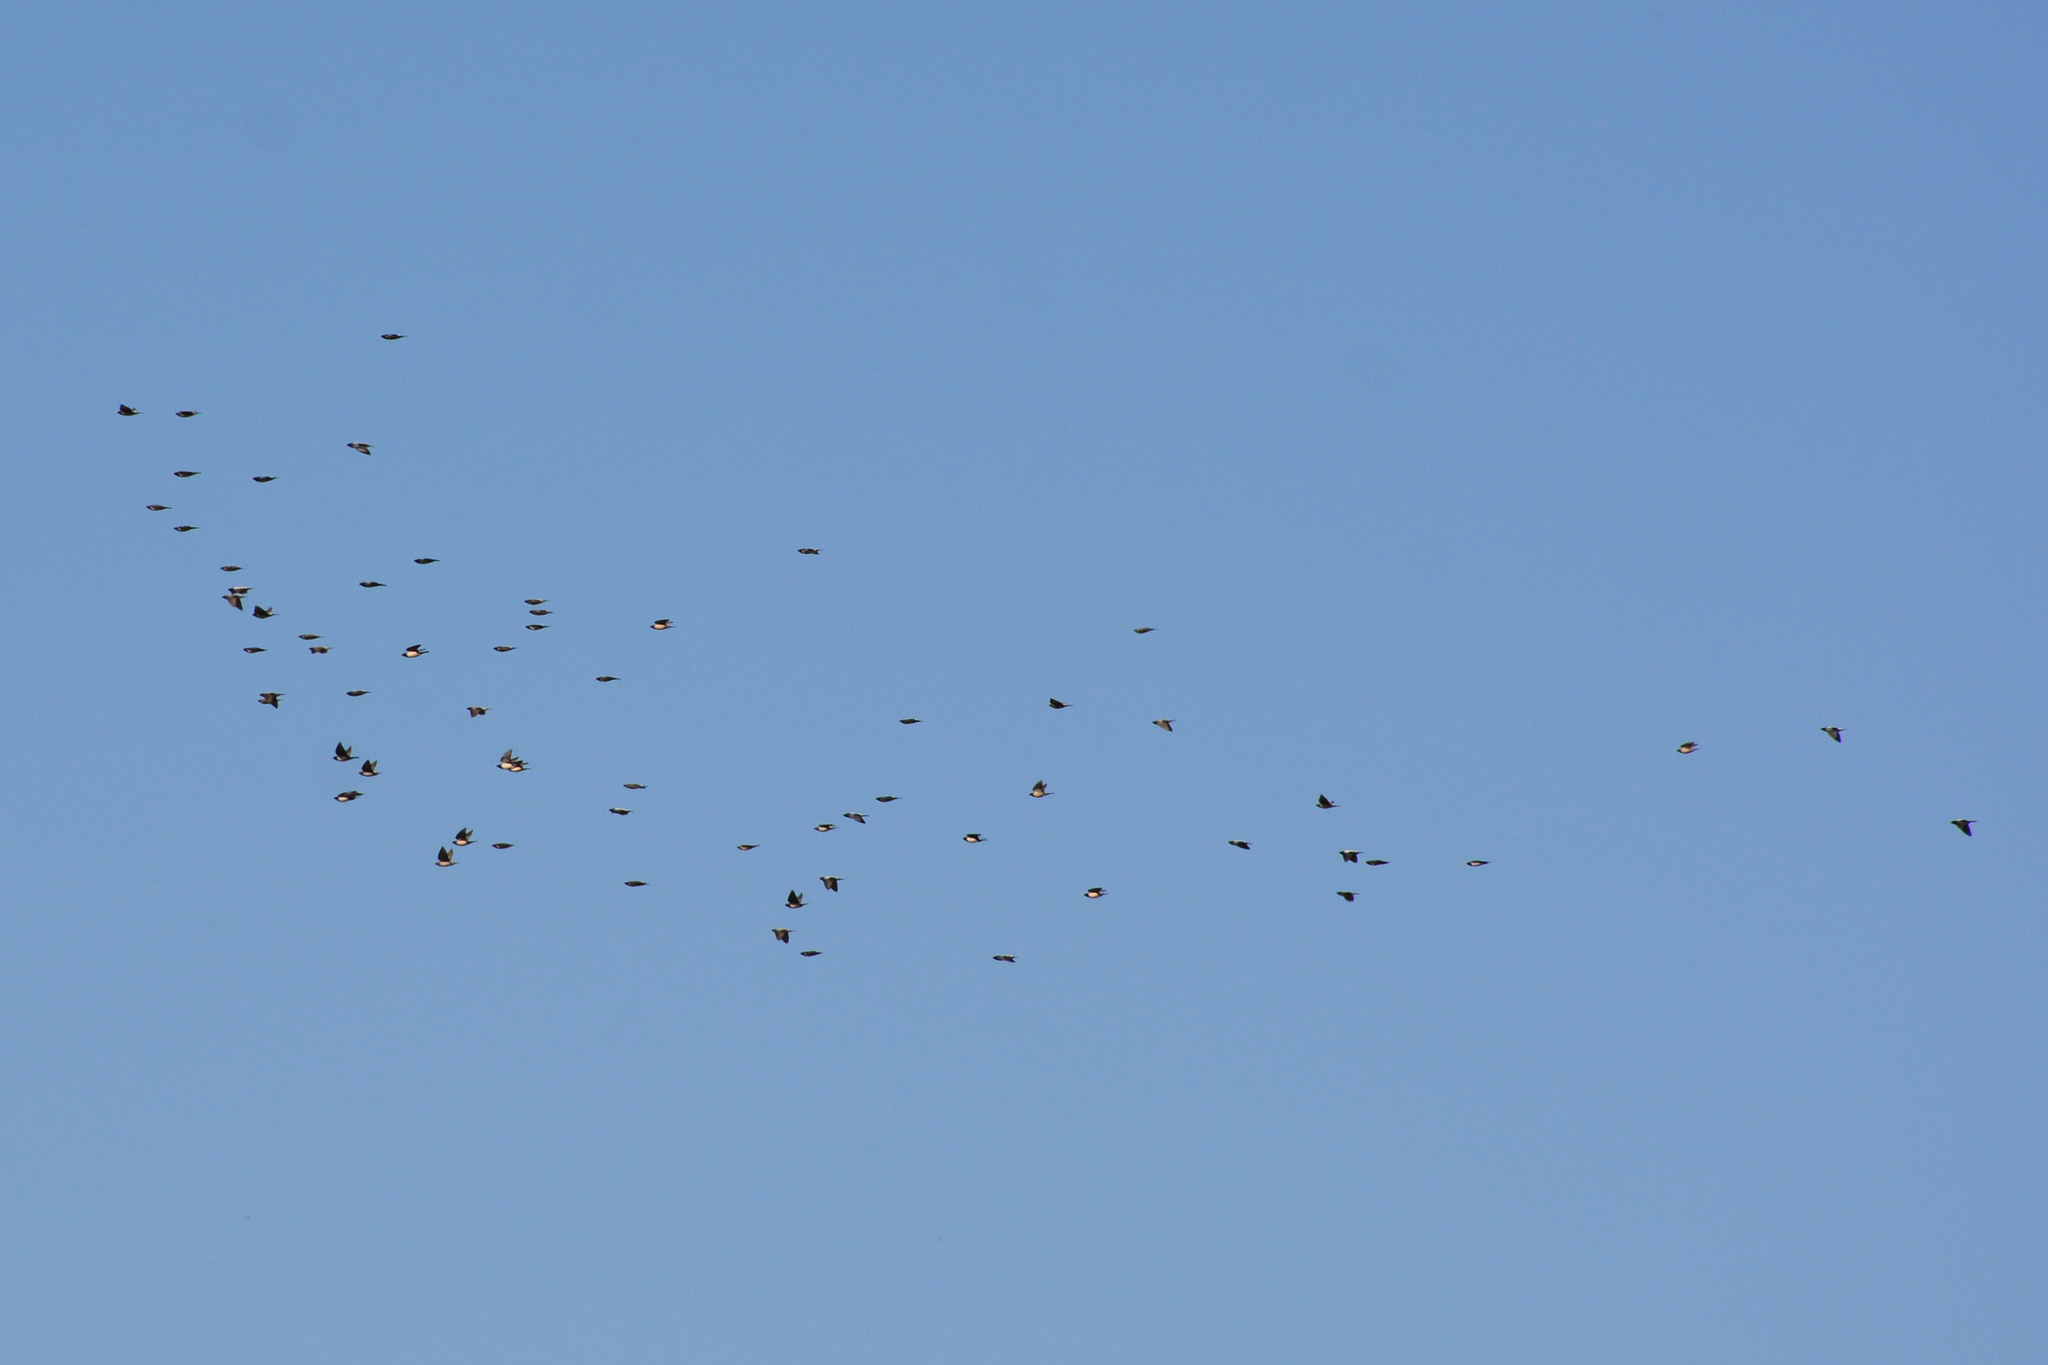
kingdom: Animalia
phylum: Chordata
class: Aves
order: Passeriformes
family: Sturnidae
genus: Pastor
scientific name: Pastor roseus
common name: Rosy starling
